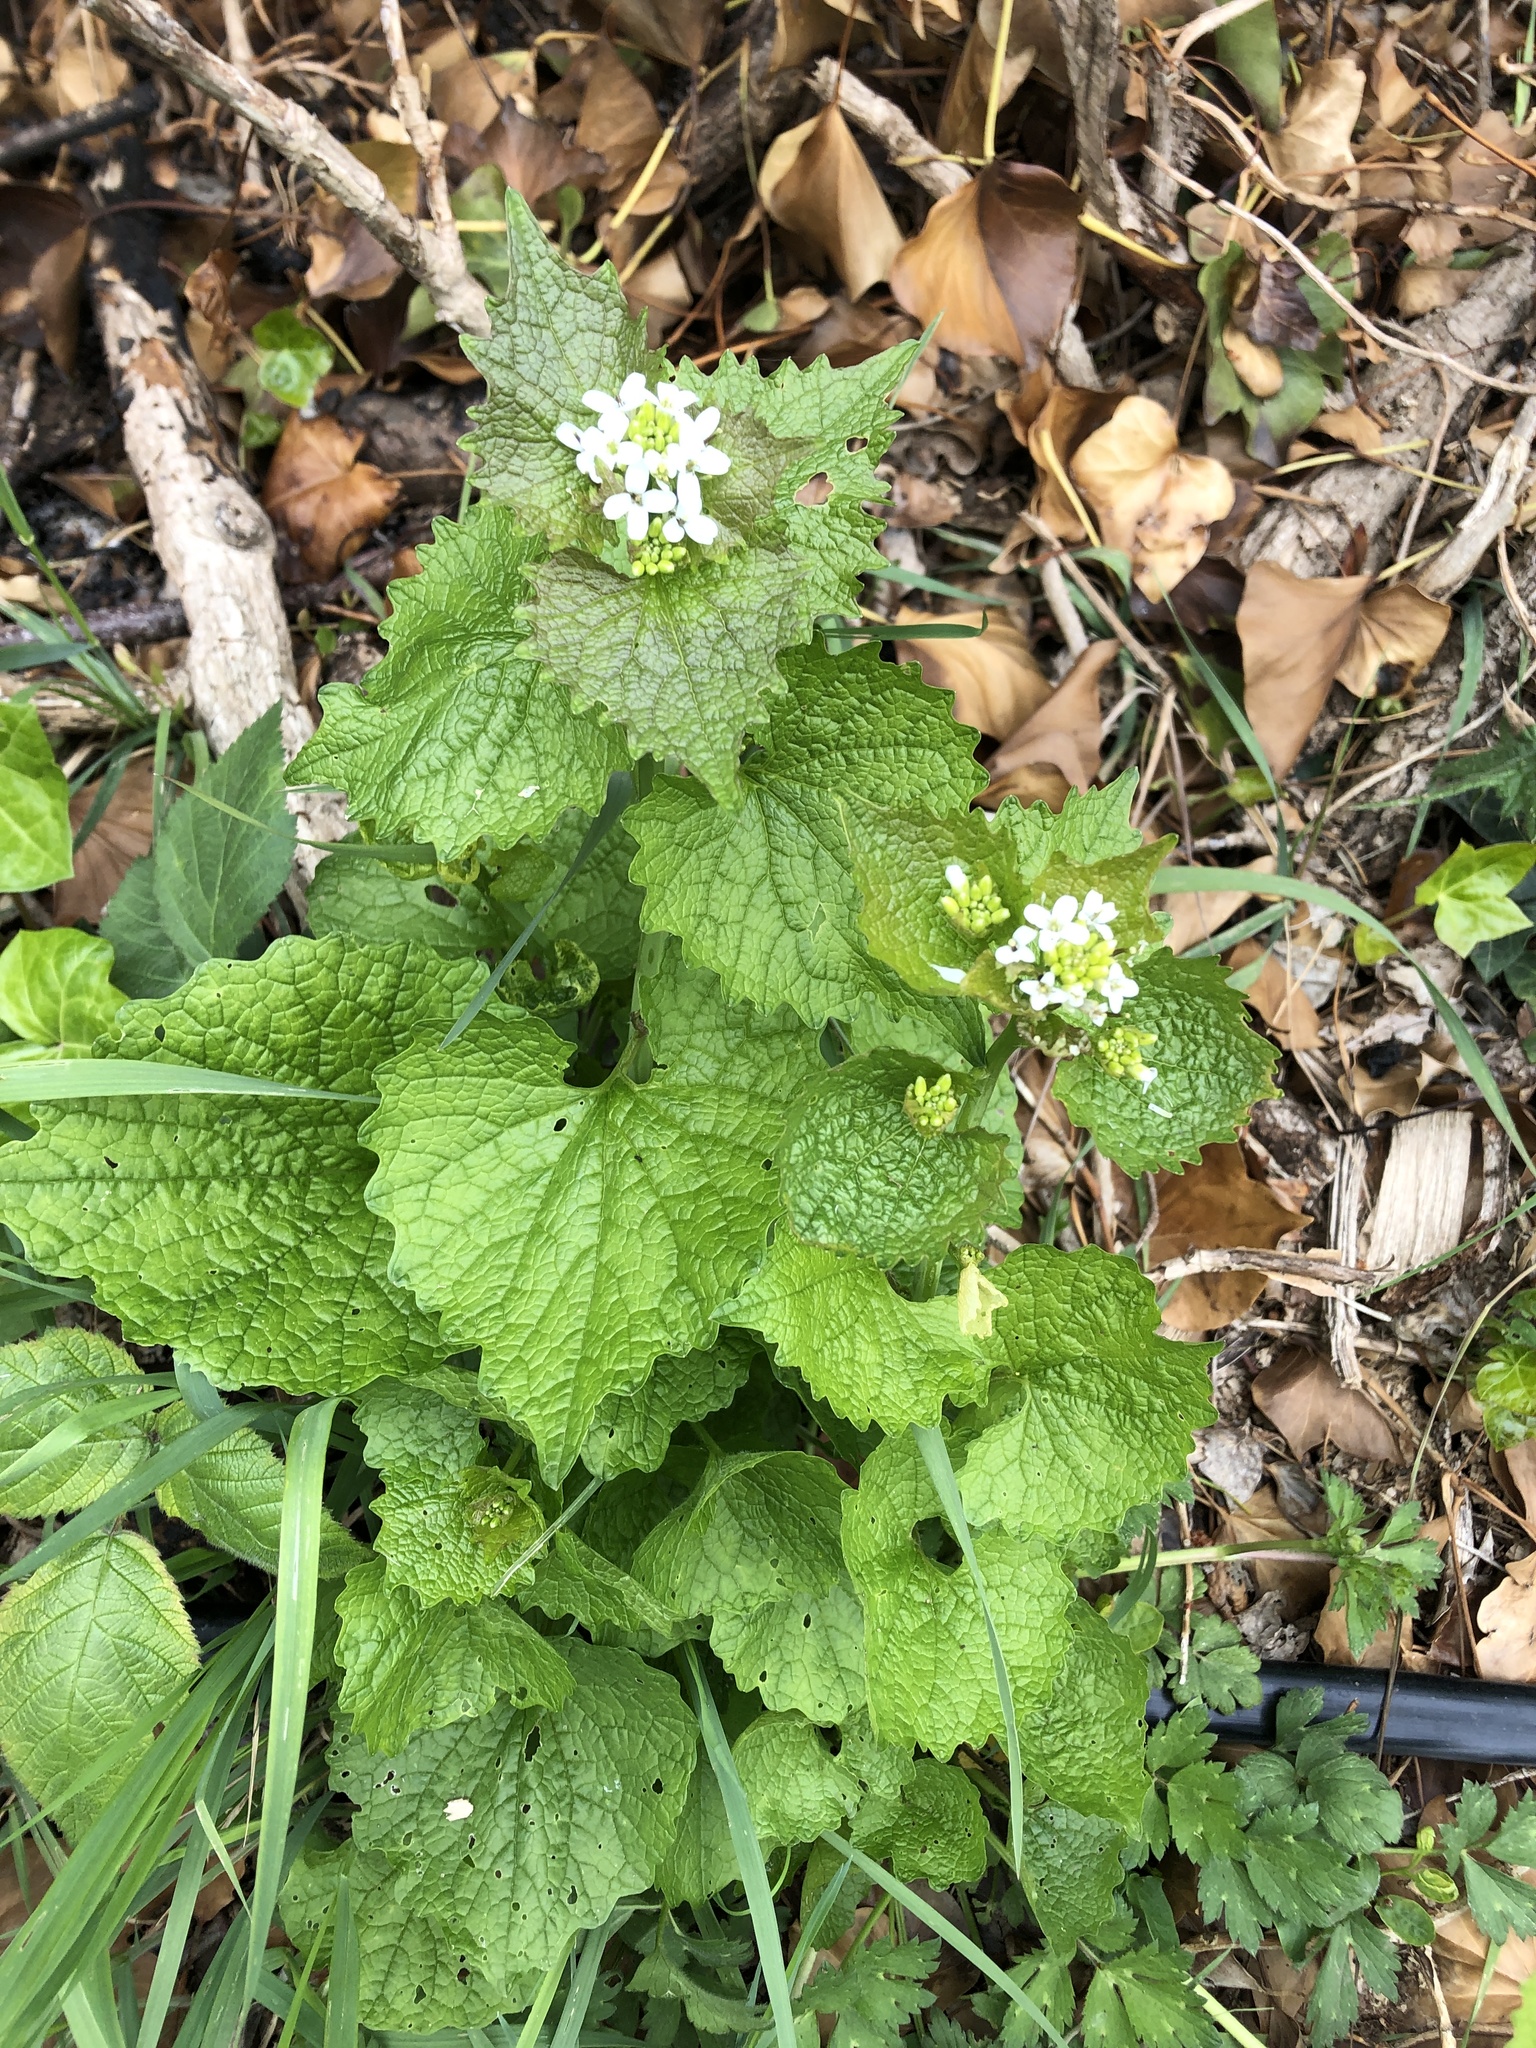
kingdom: Plantae
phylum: Tracheophyta
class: Magnoliopsida
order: Brassicales
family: Brassicaceae
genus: Alliaria
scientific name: Alliaria petiolata
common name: Garlic mustard
